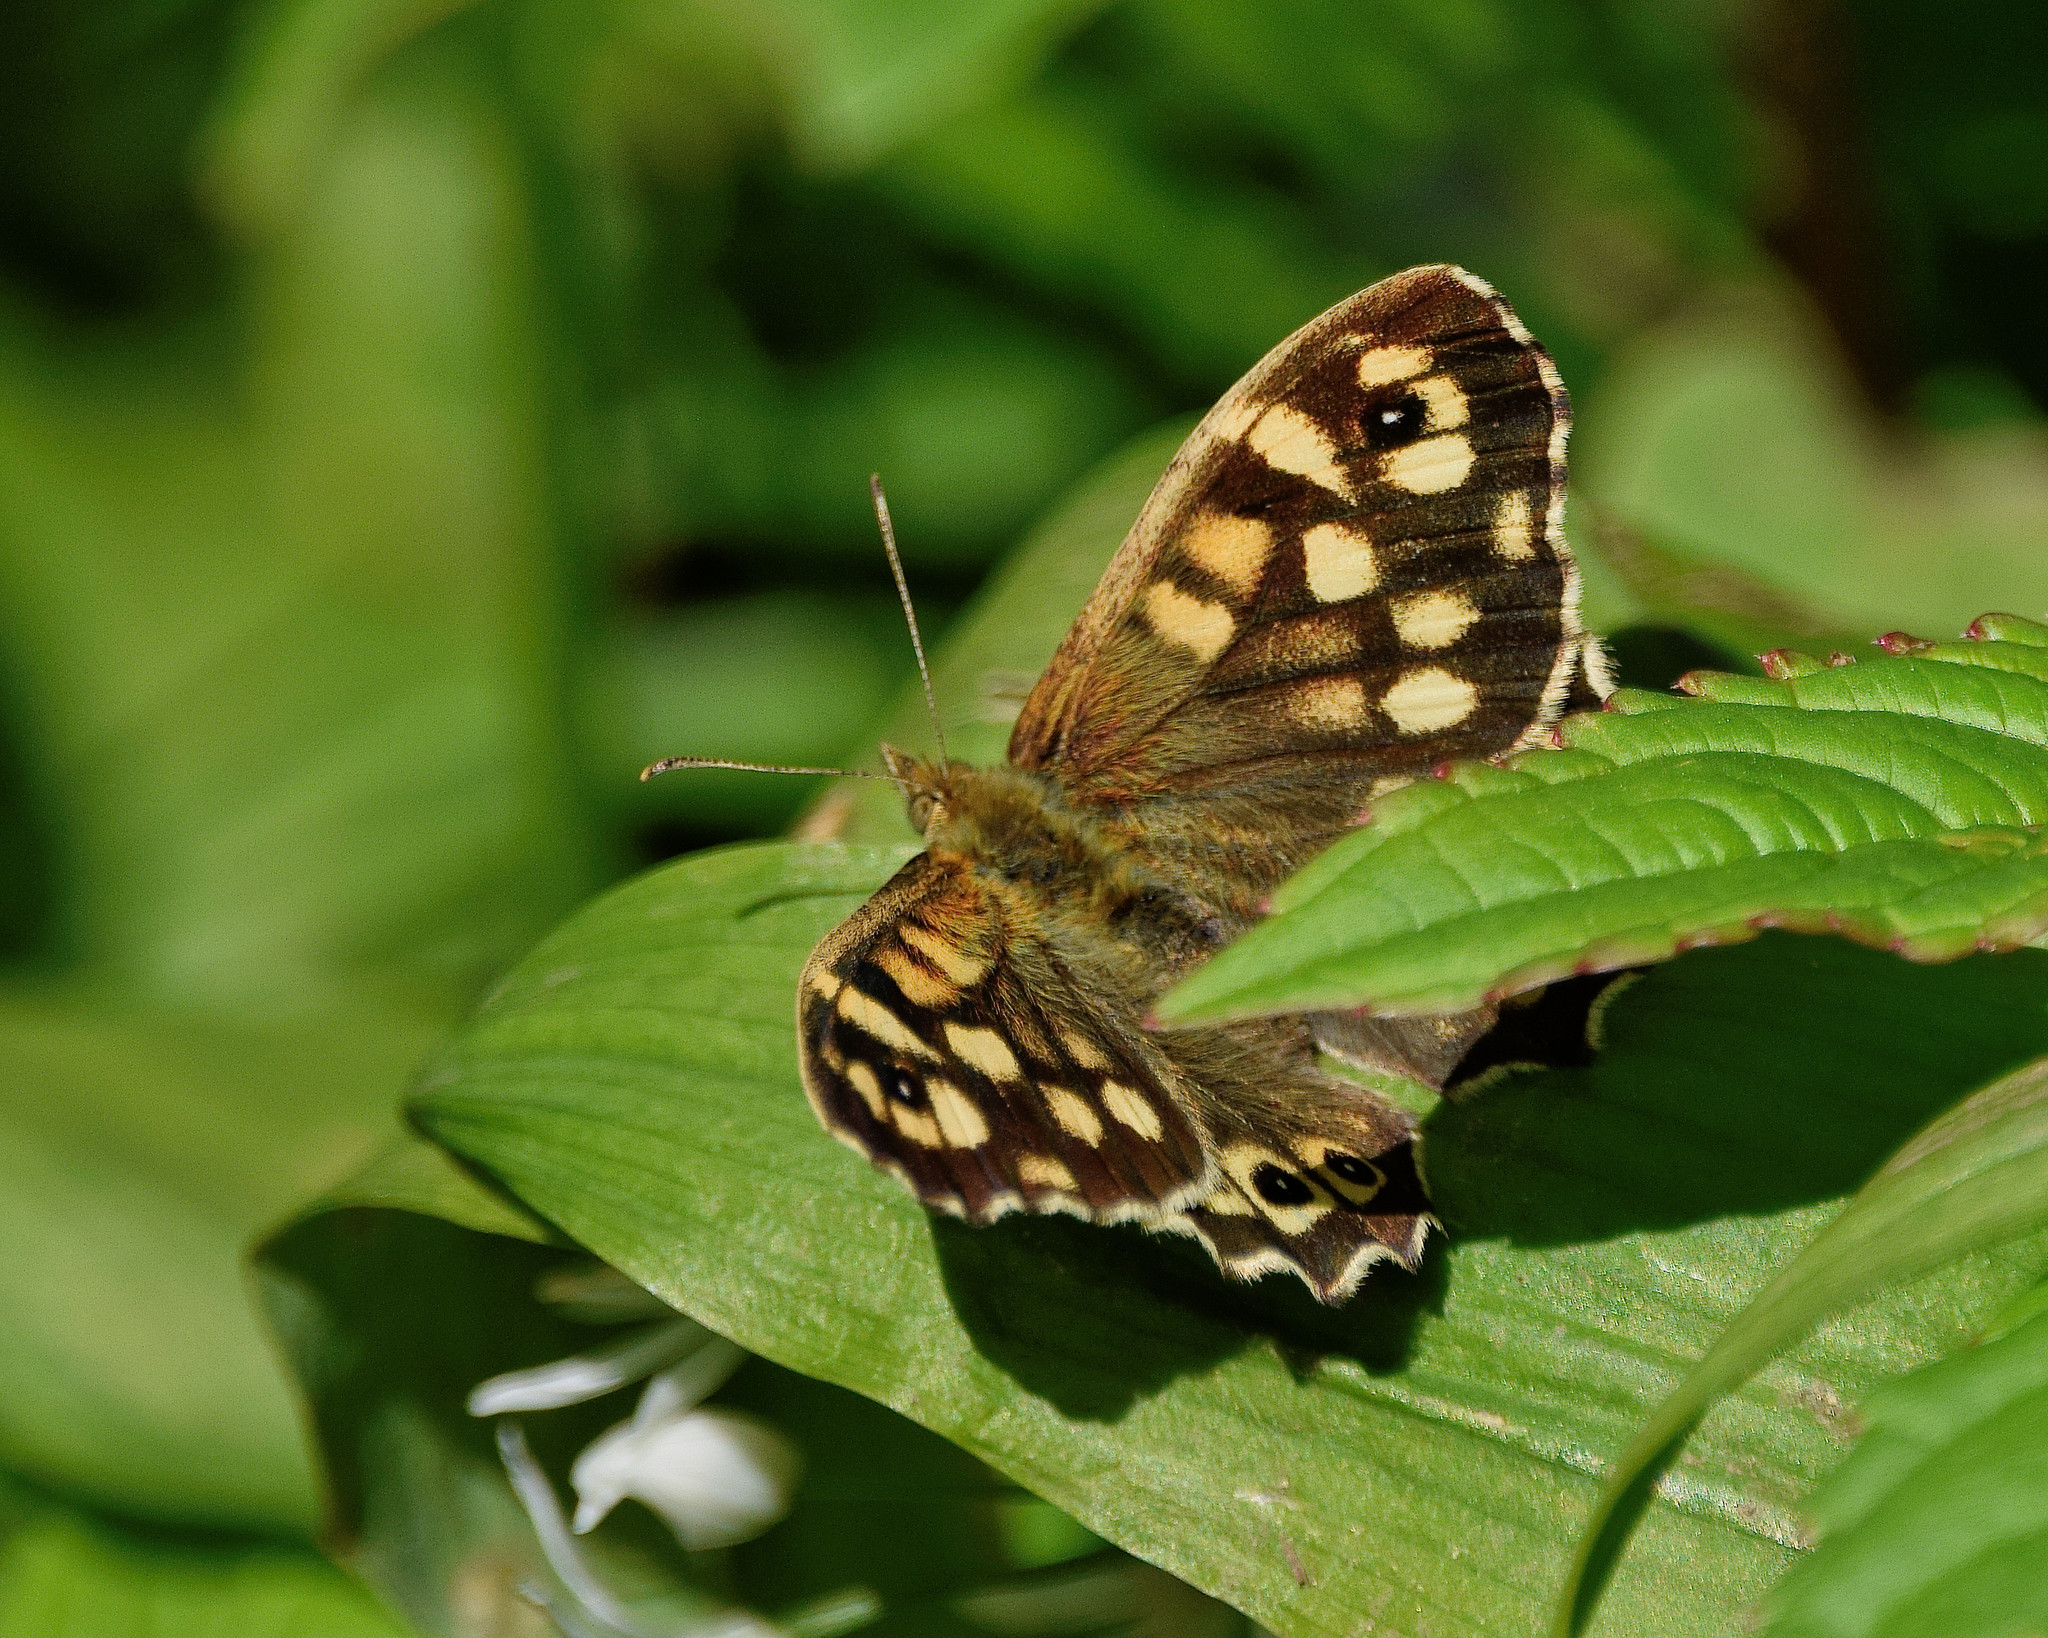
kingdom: Animalia
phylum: Arthropoda
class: Insecta
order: Lepidoptera
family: Nymphalidae
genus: Pararge
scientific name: Pararge aegeria
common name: Speckled wood
